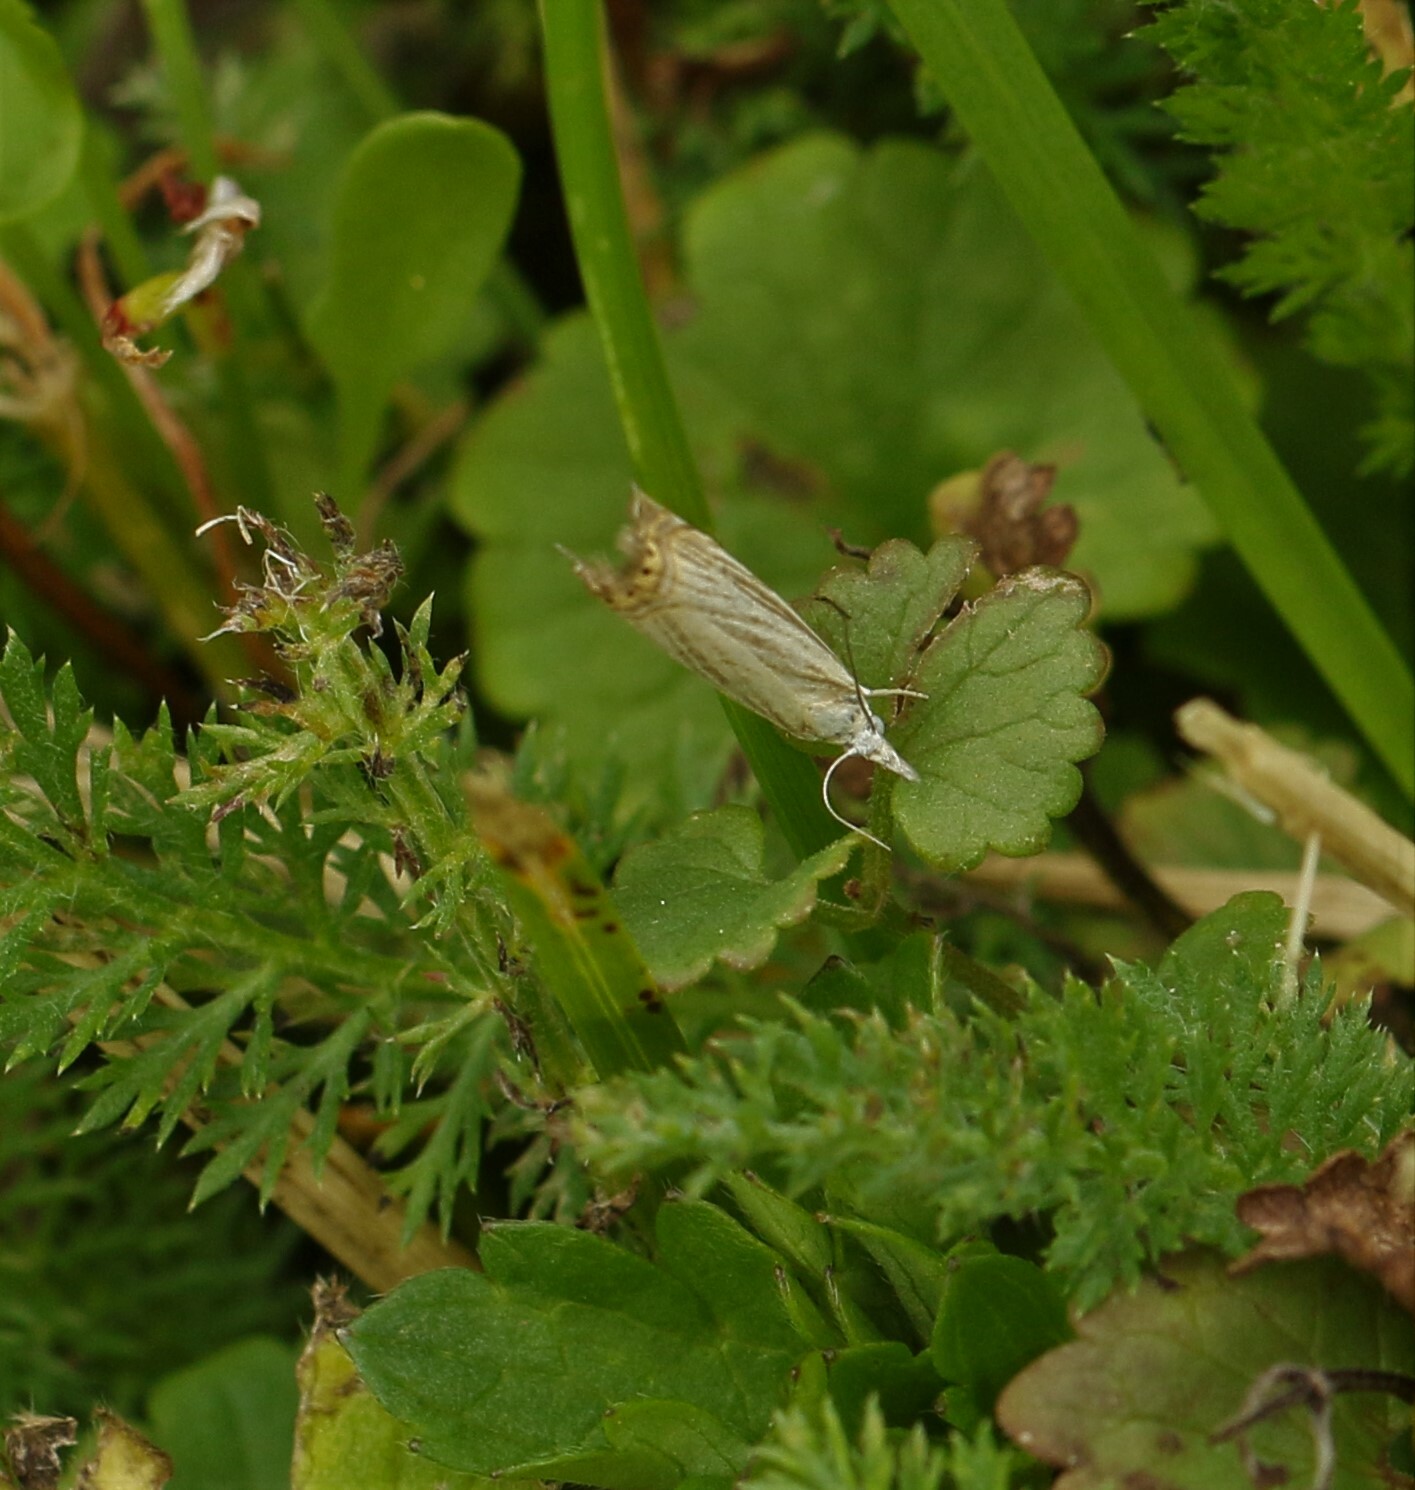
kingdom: Animalia
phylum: Arthropoda
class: Insecta
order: Lepidoptera
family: Crambidae
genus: Chrysoteuchia
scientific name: Chrysoteuchia topiarius
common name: Topiary grass-veneer
